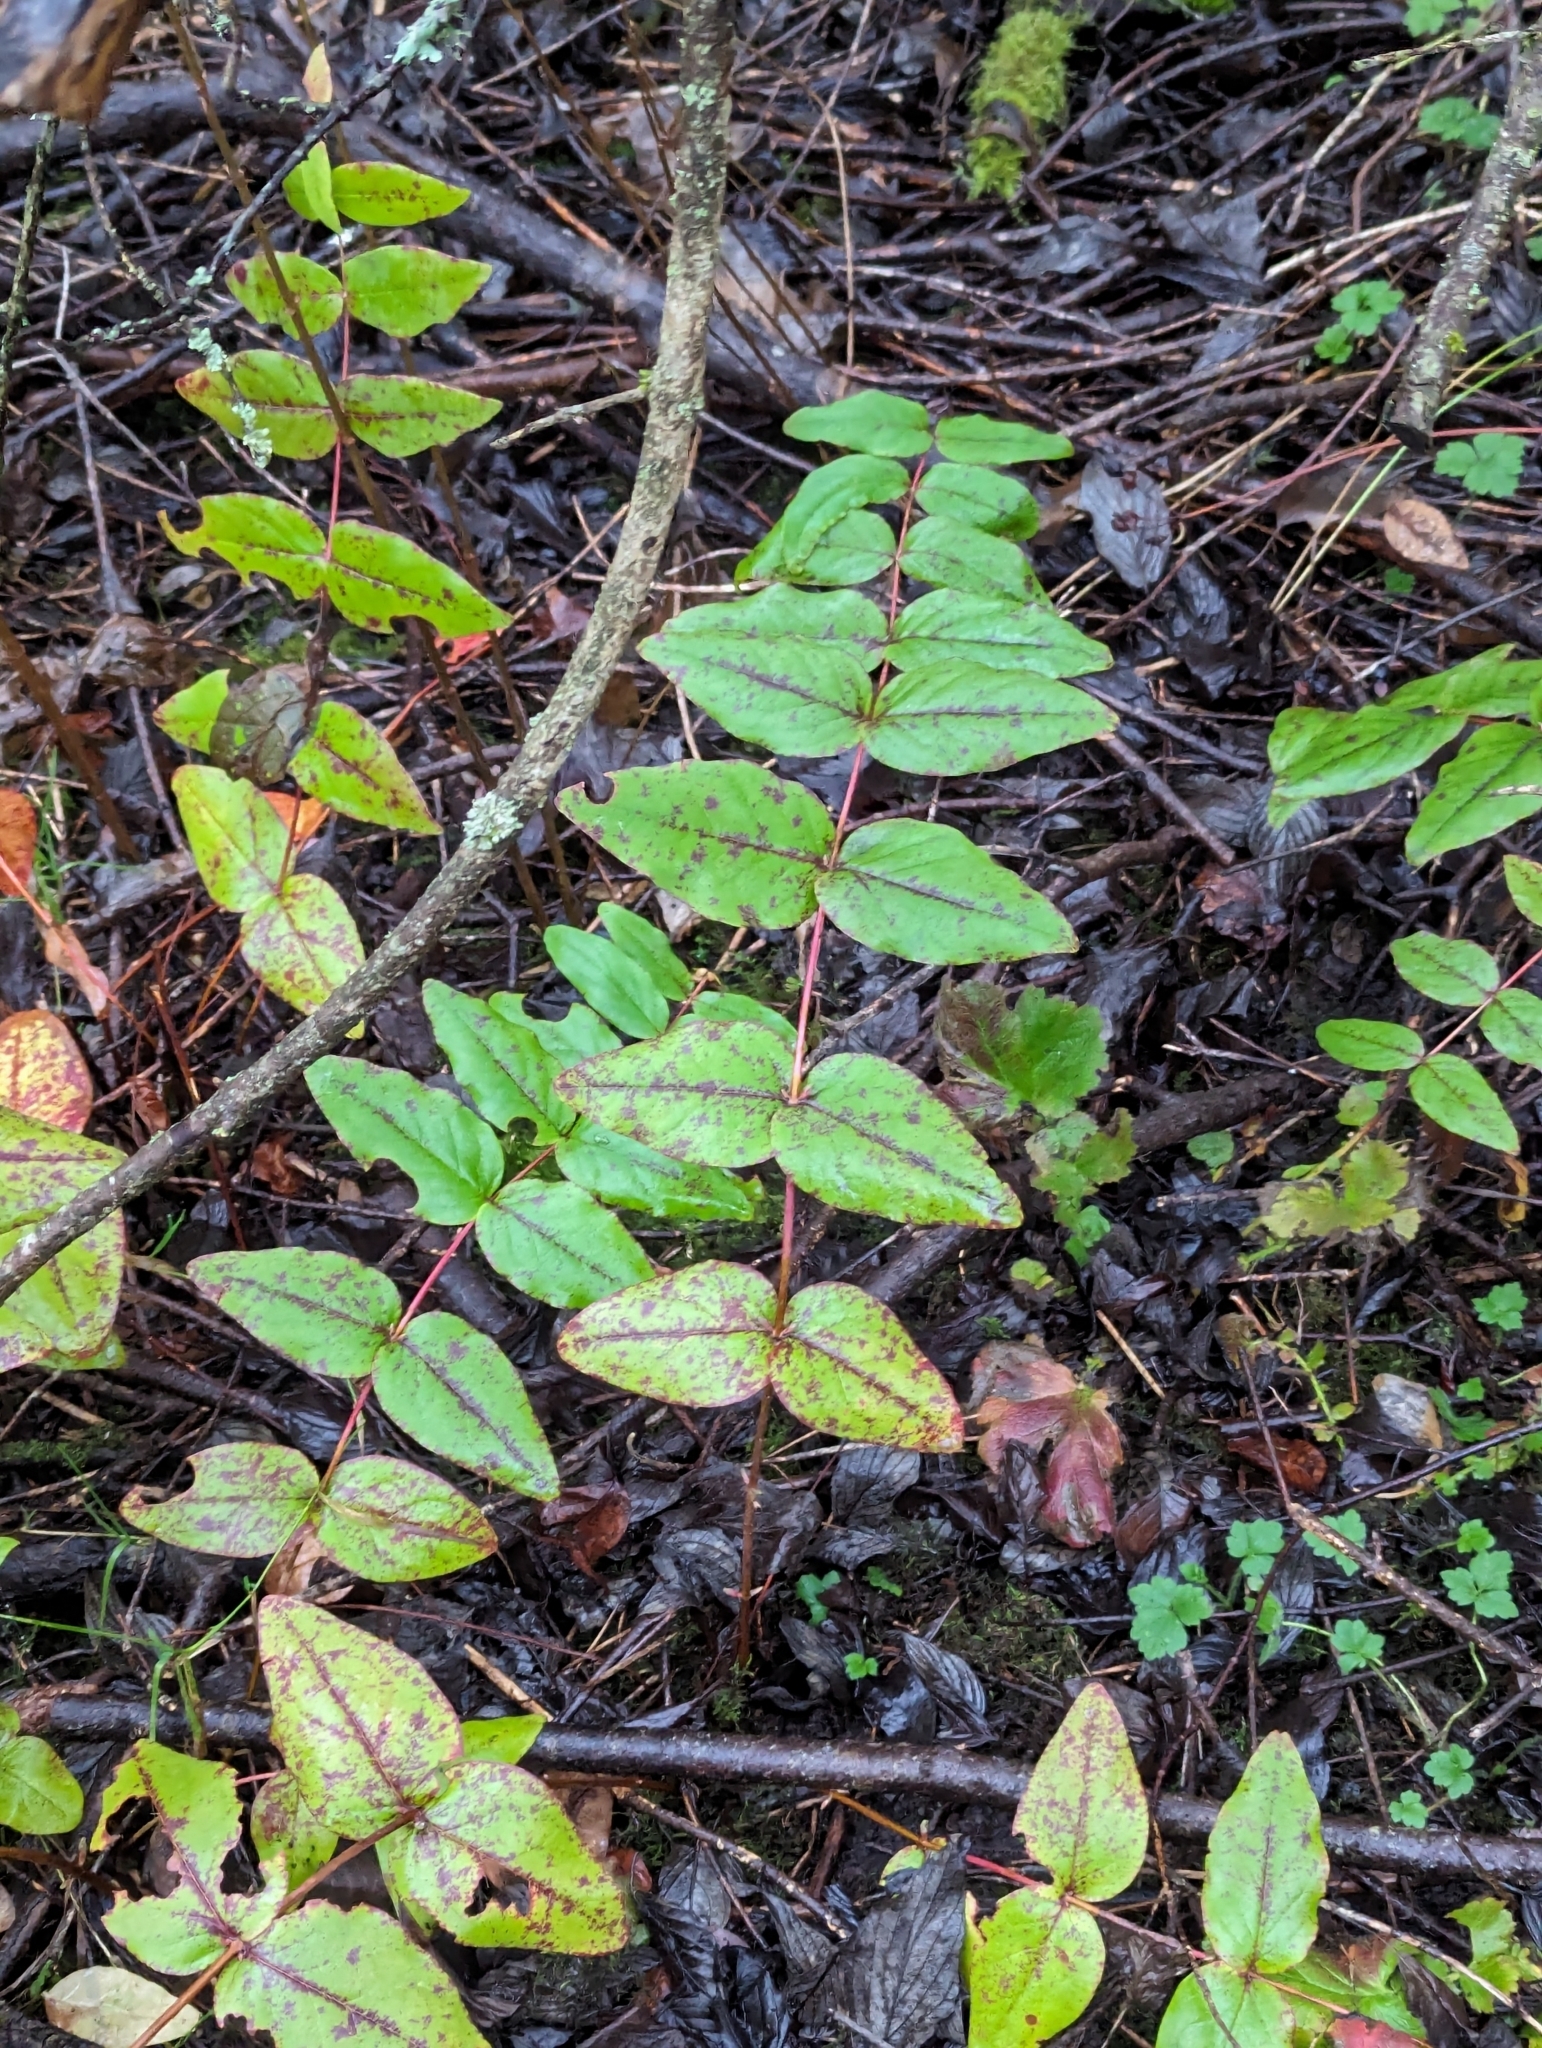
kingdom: Plantae
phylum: Tracheophyta
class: Magnoliopsida
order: Malpighiales
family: Hypericaceae
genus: Hypericum
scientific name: Hypericum androsaemum
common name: Sweet-amber
